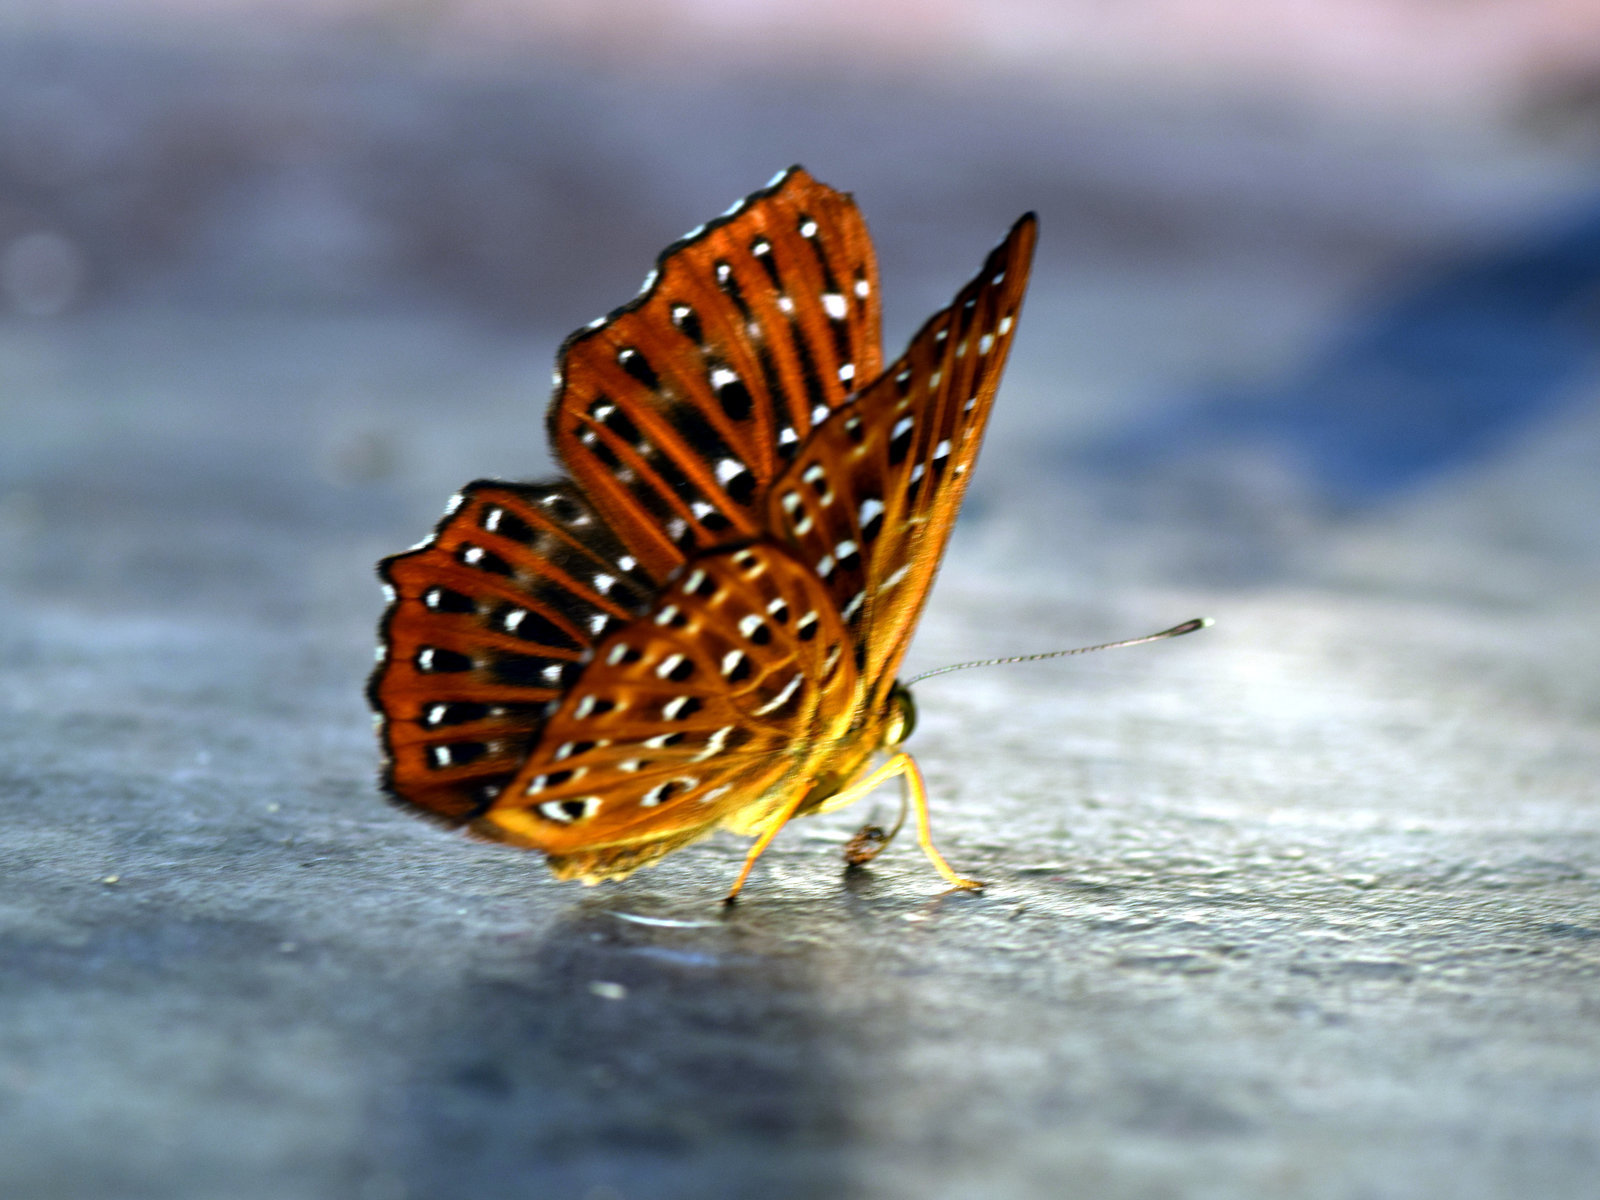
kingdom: Animalia
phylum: Arthropoda
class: Insecta
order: Lepidoptera
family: Riodinidae
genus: Zemeros
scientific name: Zemeros flegyas
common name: Punchinello
